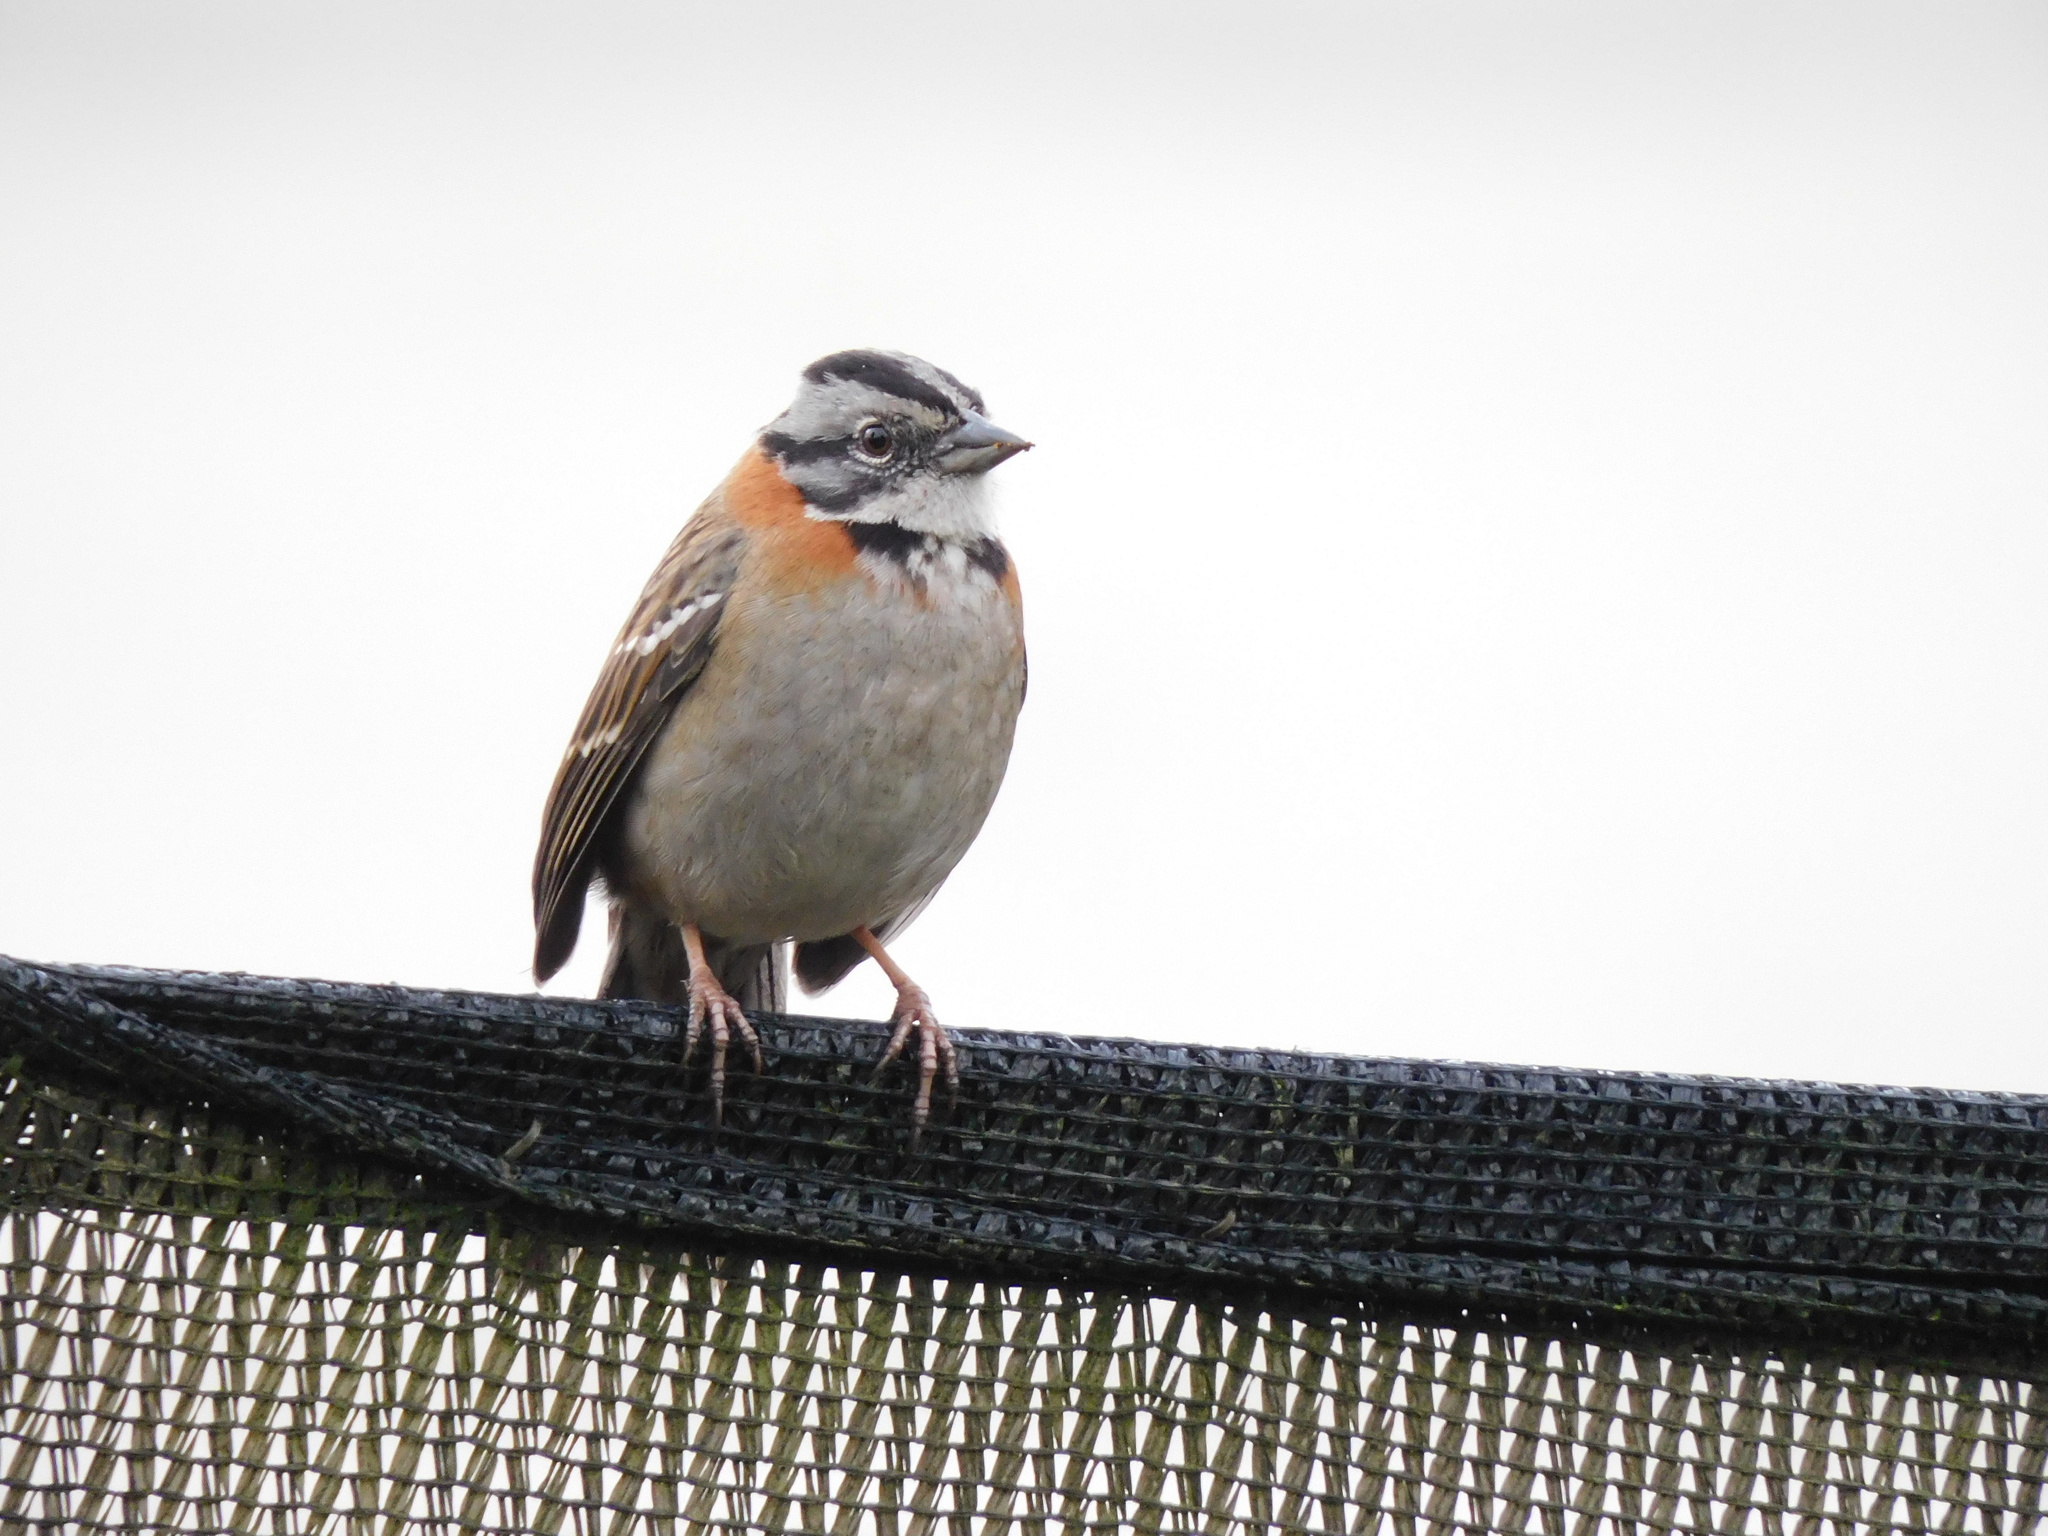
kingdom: Animalia
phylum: Chordata
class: Aves
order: Passeriformes
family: Passerellidae
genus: Zonotrichia
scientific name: Zonotrichia capensis
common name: Rufous-collared sparrow
